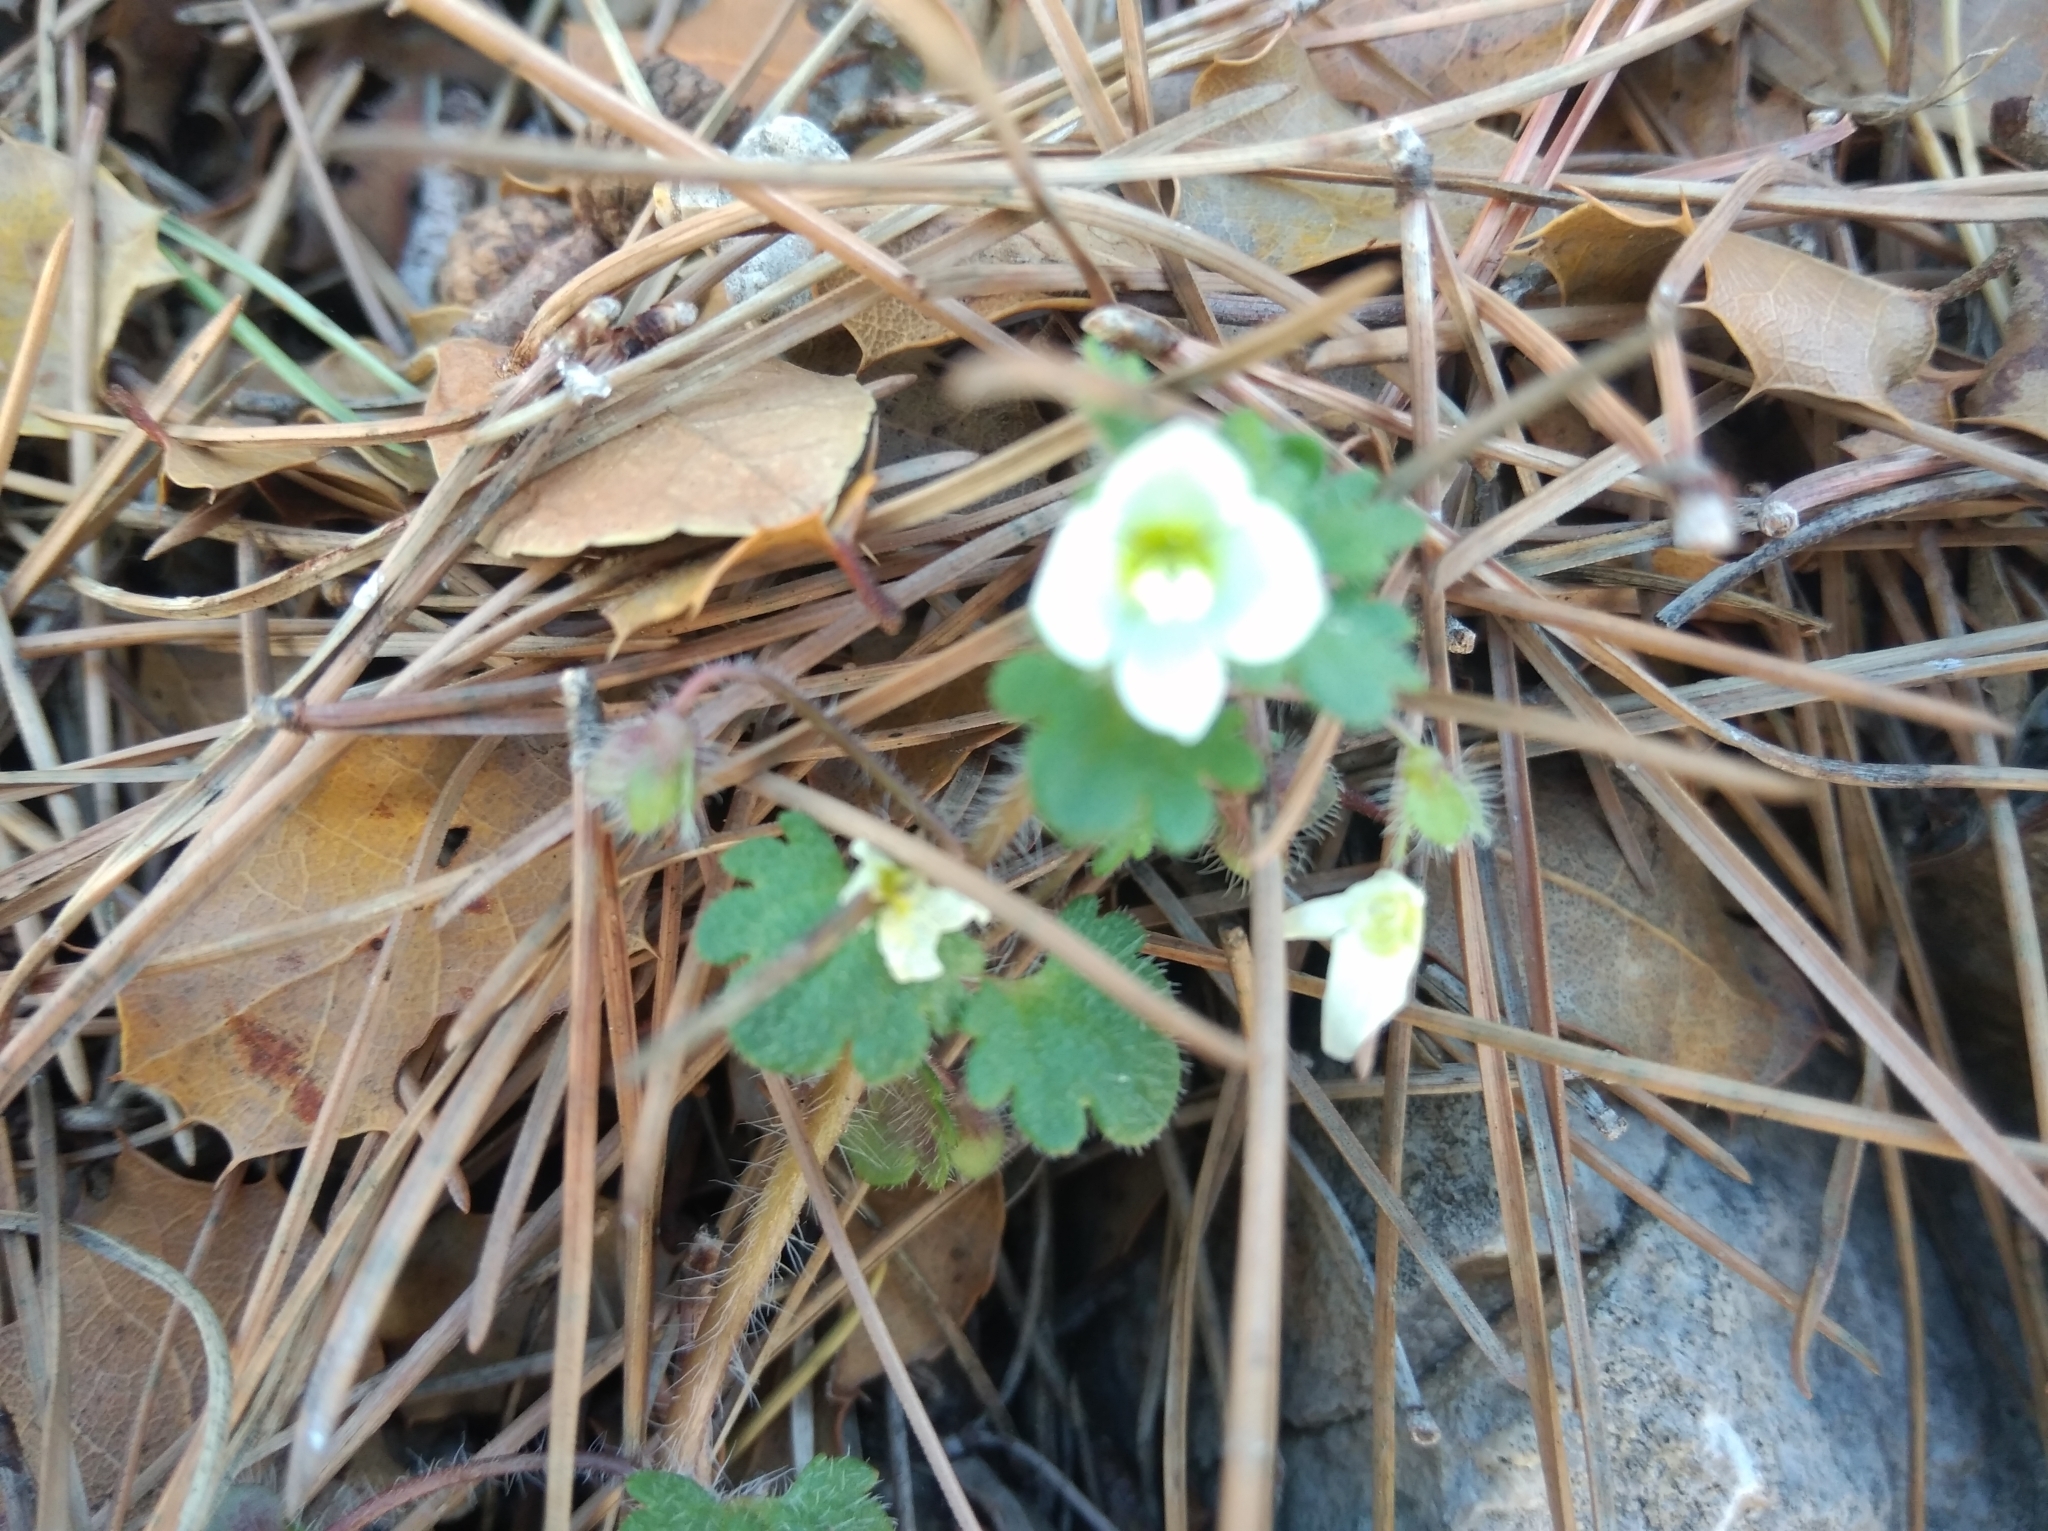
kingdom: Plantae
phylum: Tracheophyta
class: Magnoliopsida
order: Lamiales
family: Plantaginaceae
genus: Veronica
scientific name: Veronica cymbalaria
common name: Pale speedwell
